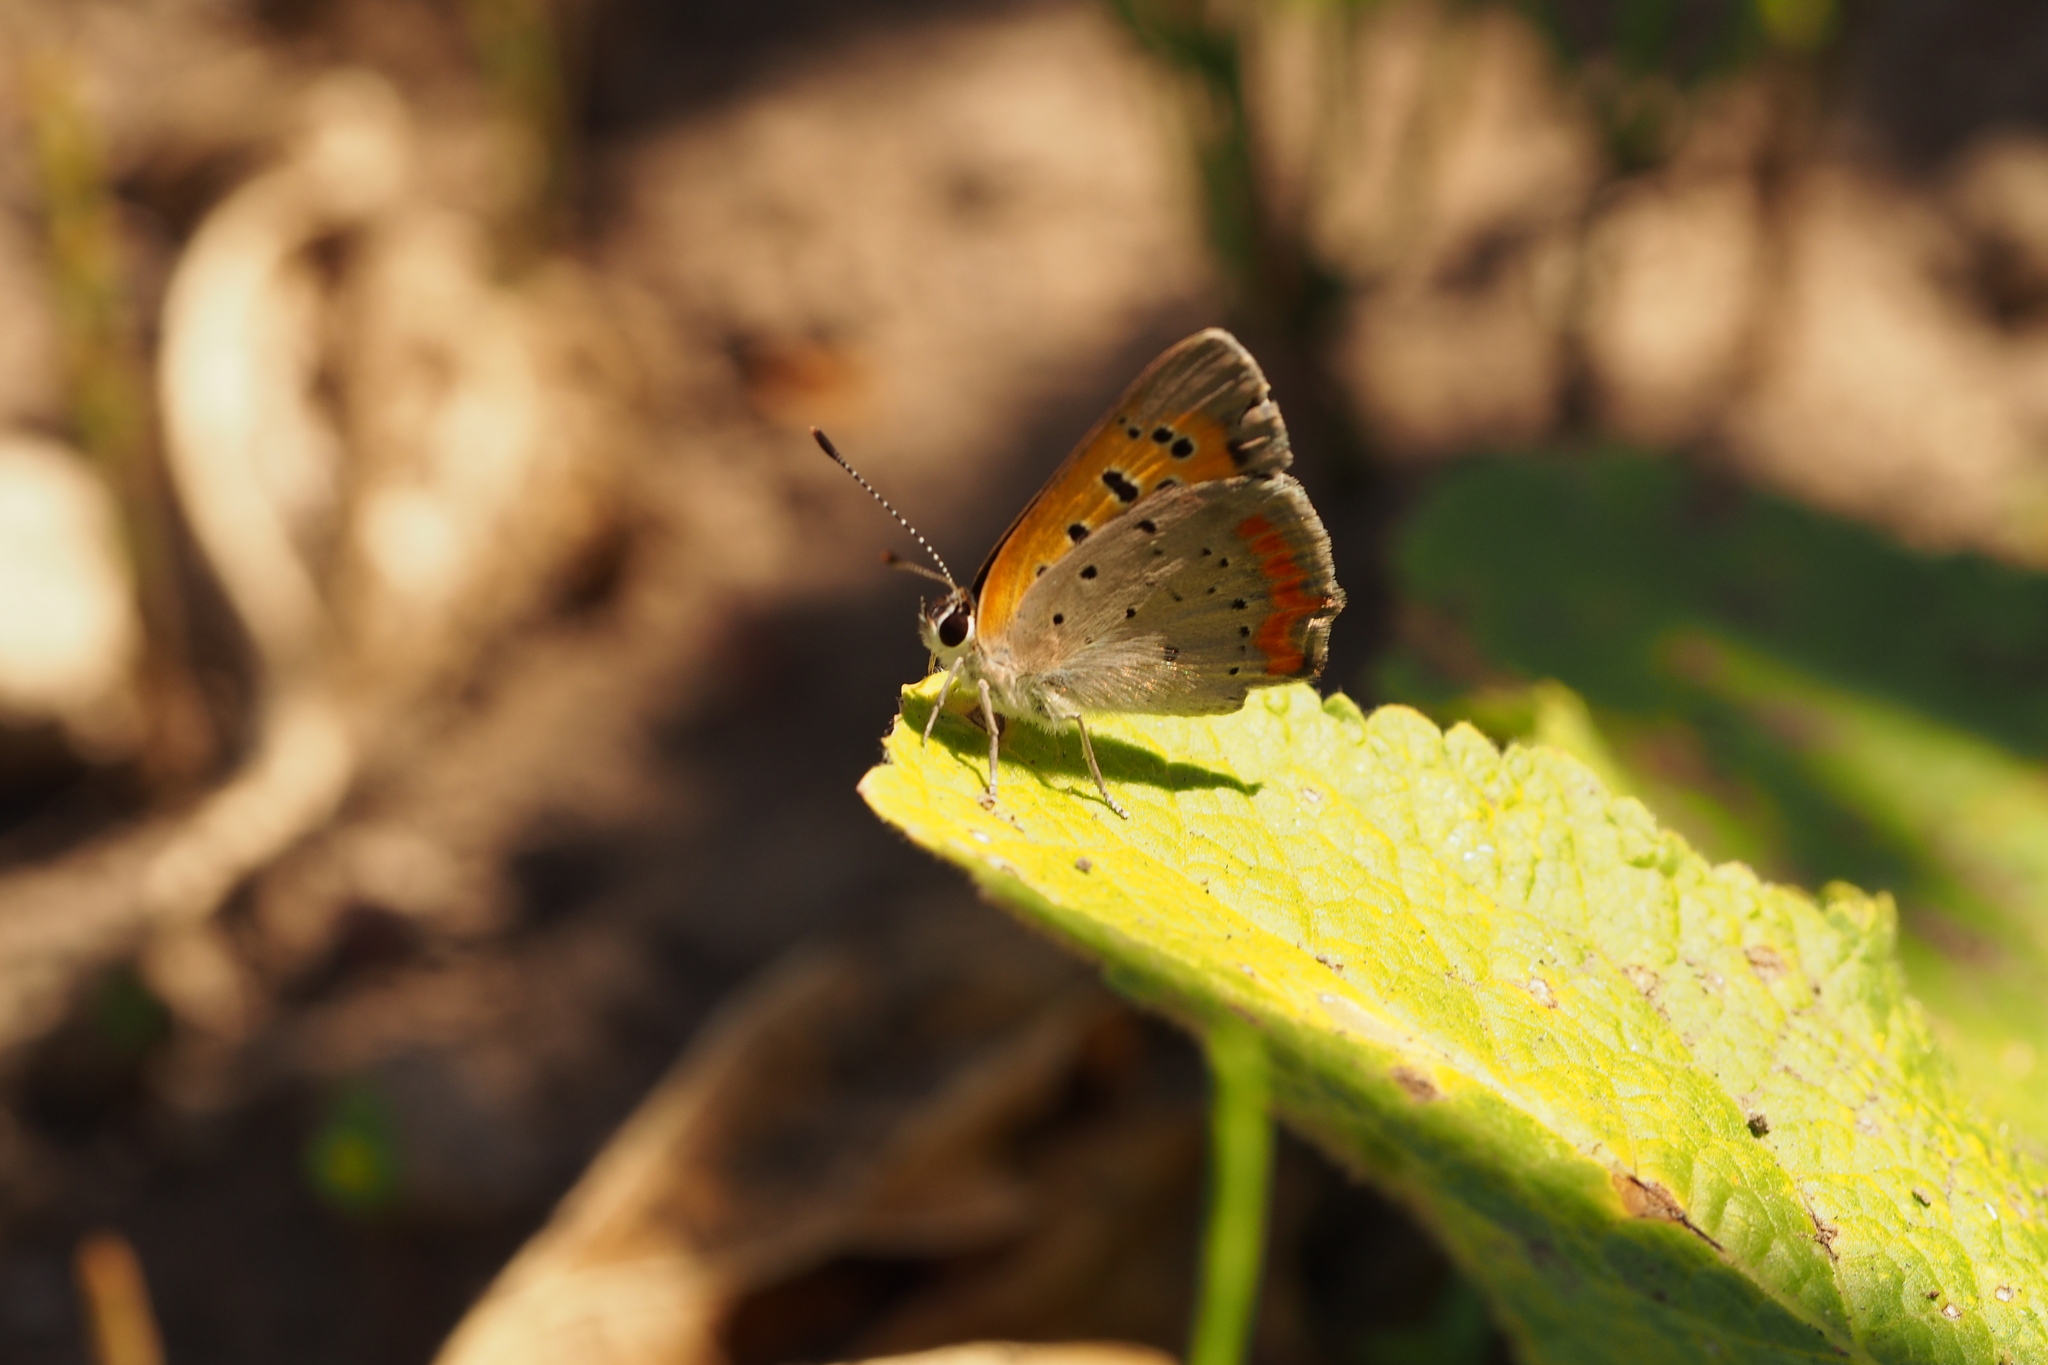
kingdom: Animalia
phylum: Arthropoda
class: Insecta
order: Lepidoptera
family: Lycaenidae
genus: Lycaena
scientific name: Lycaena phlaeas
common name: Small copper
